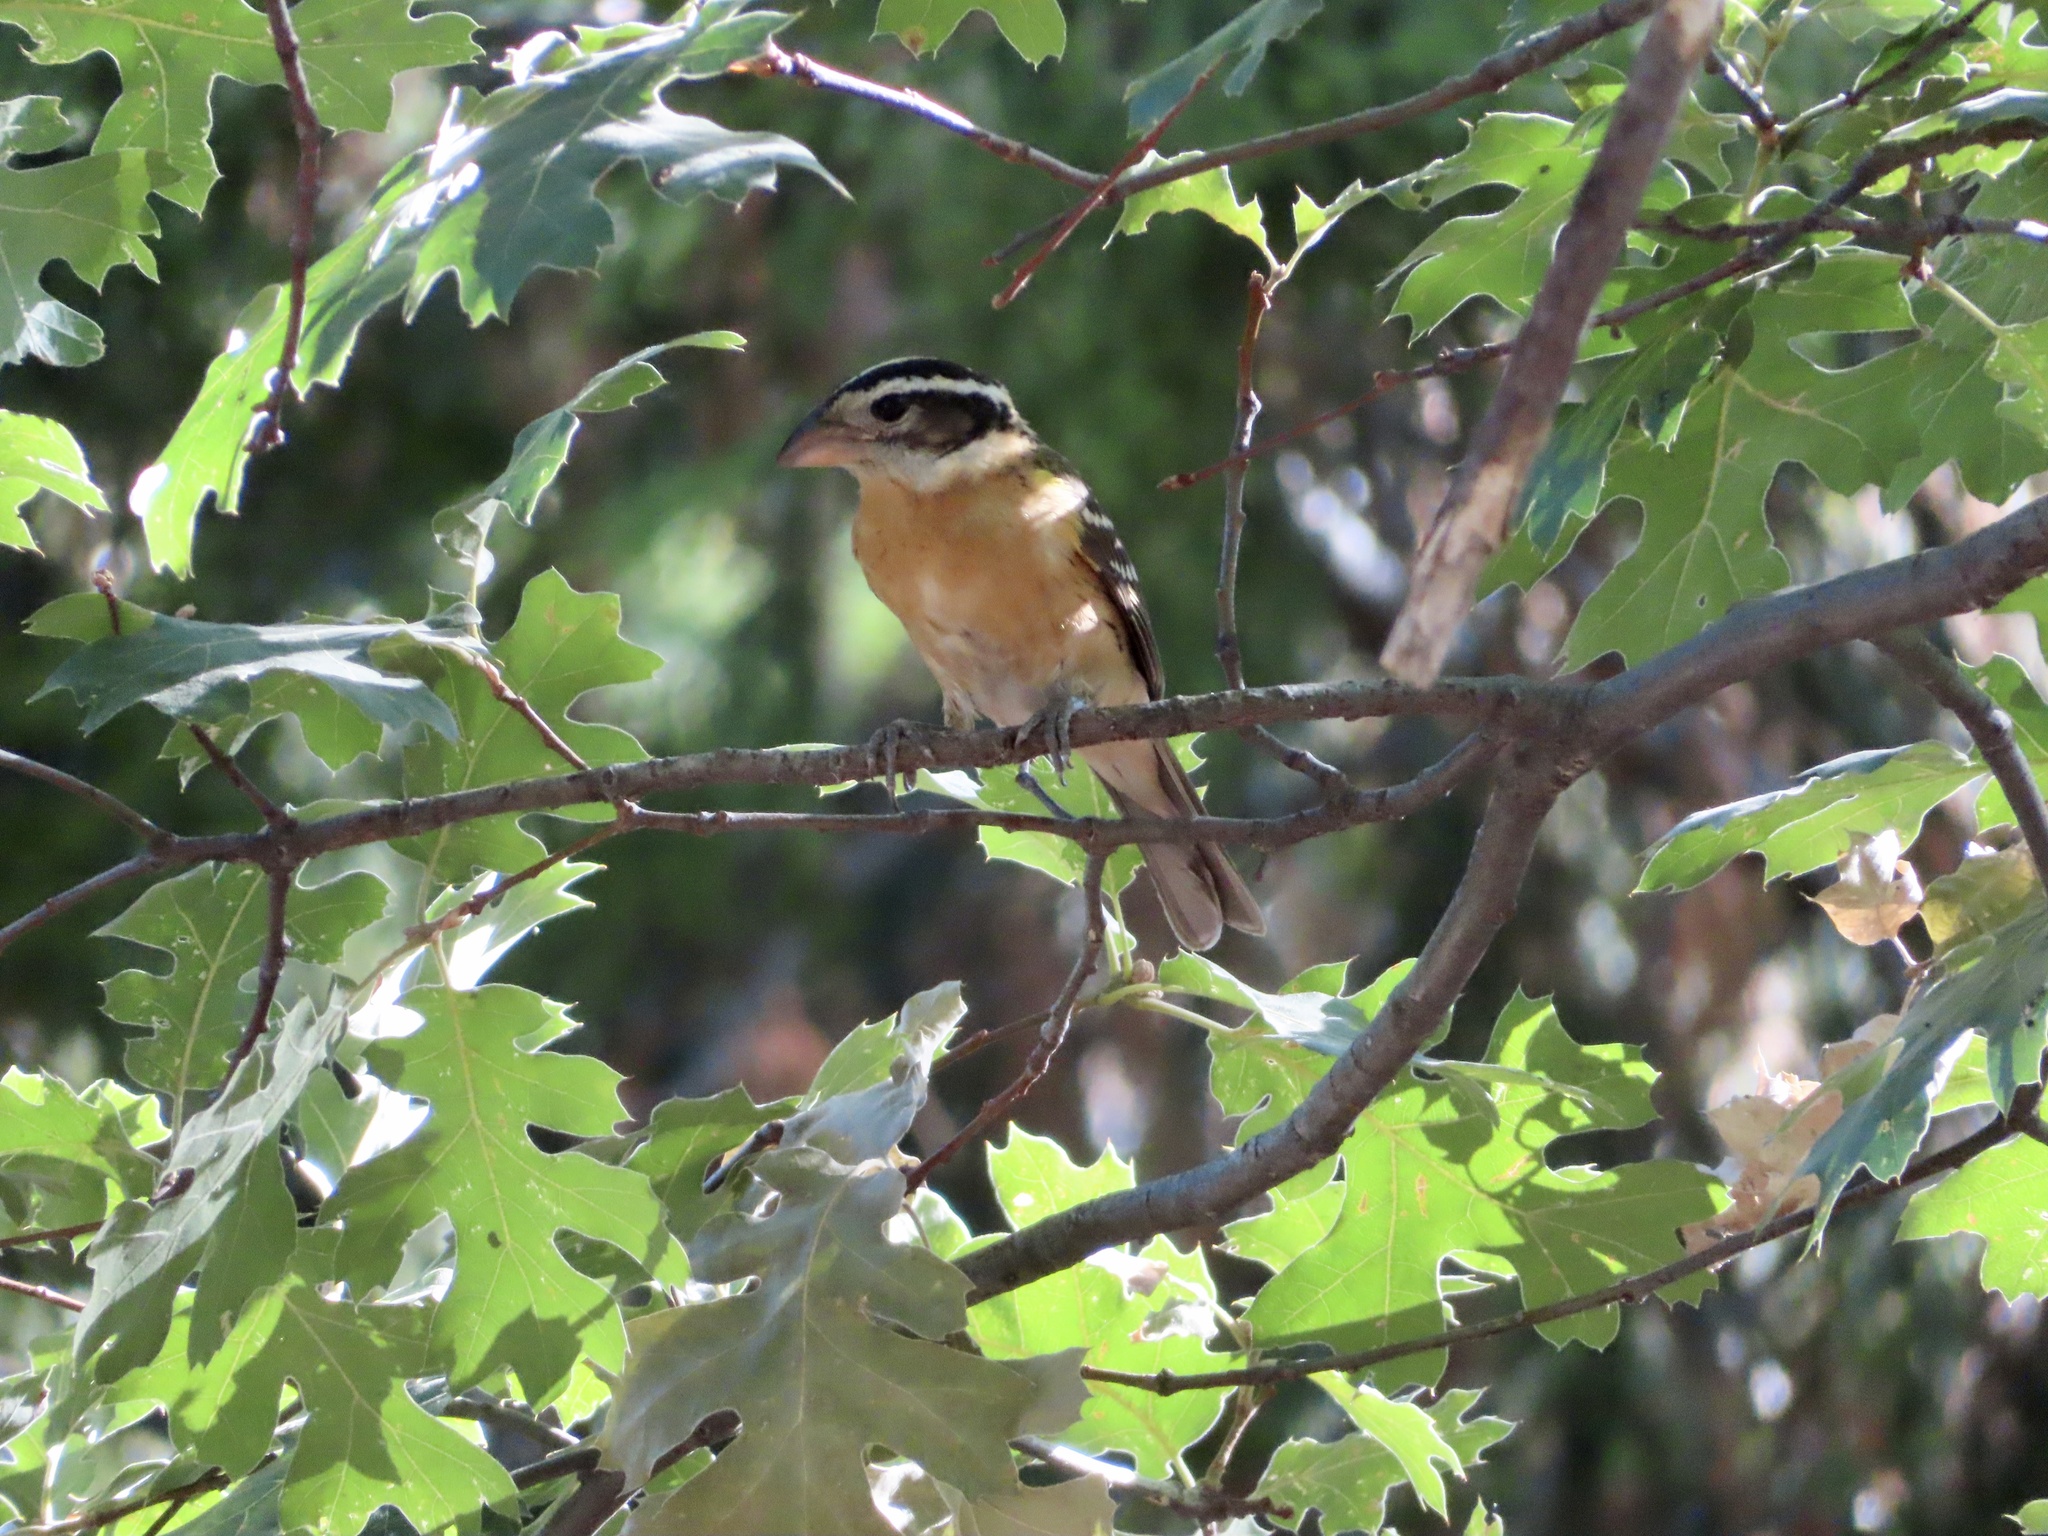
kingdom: Animalia
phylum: Chordata
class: Aves
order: Passeriformes
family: Cardinalidae
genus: Pheucticus
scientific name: Pheucticus melanocephalus
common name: Black-headed grosbeak
